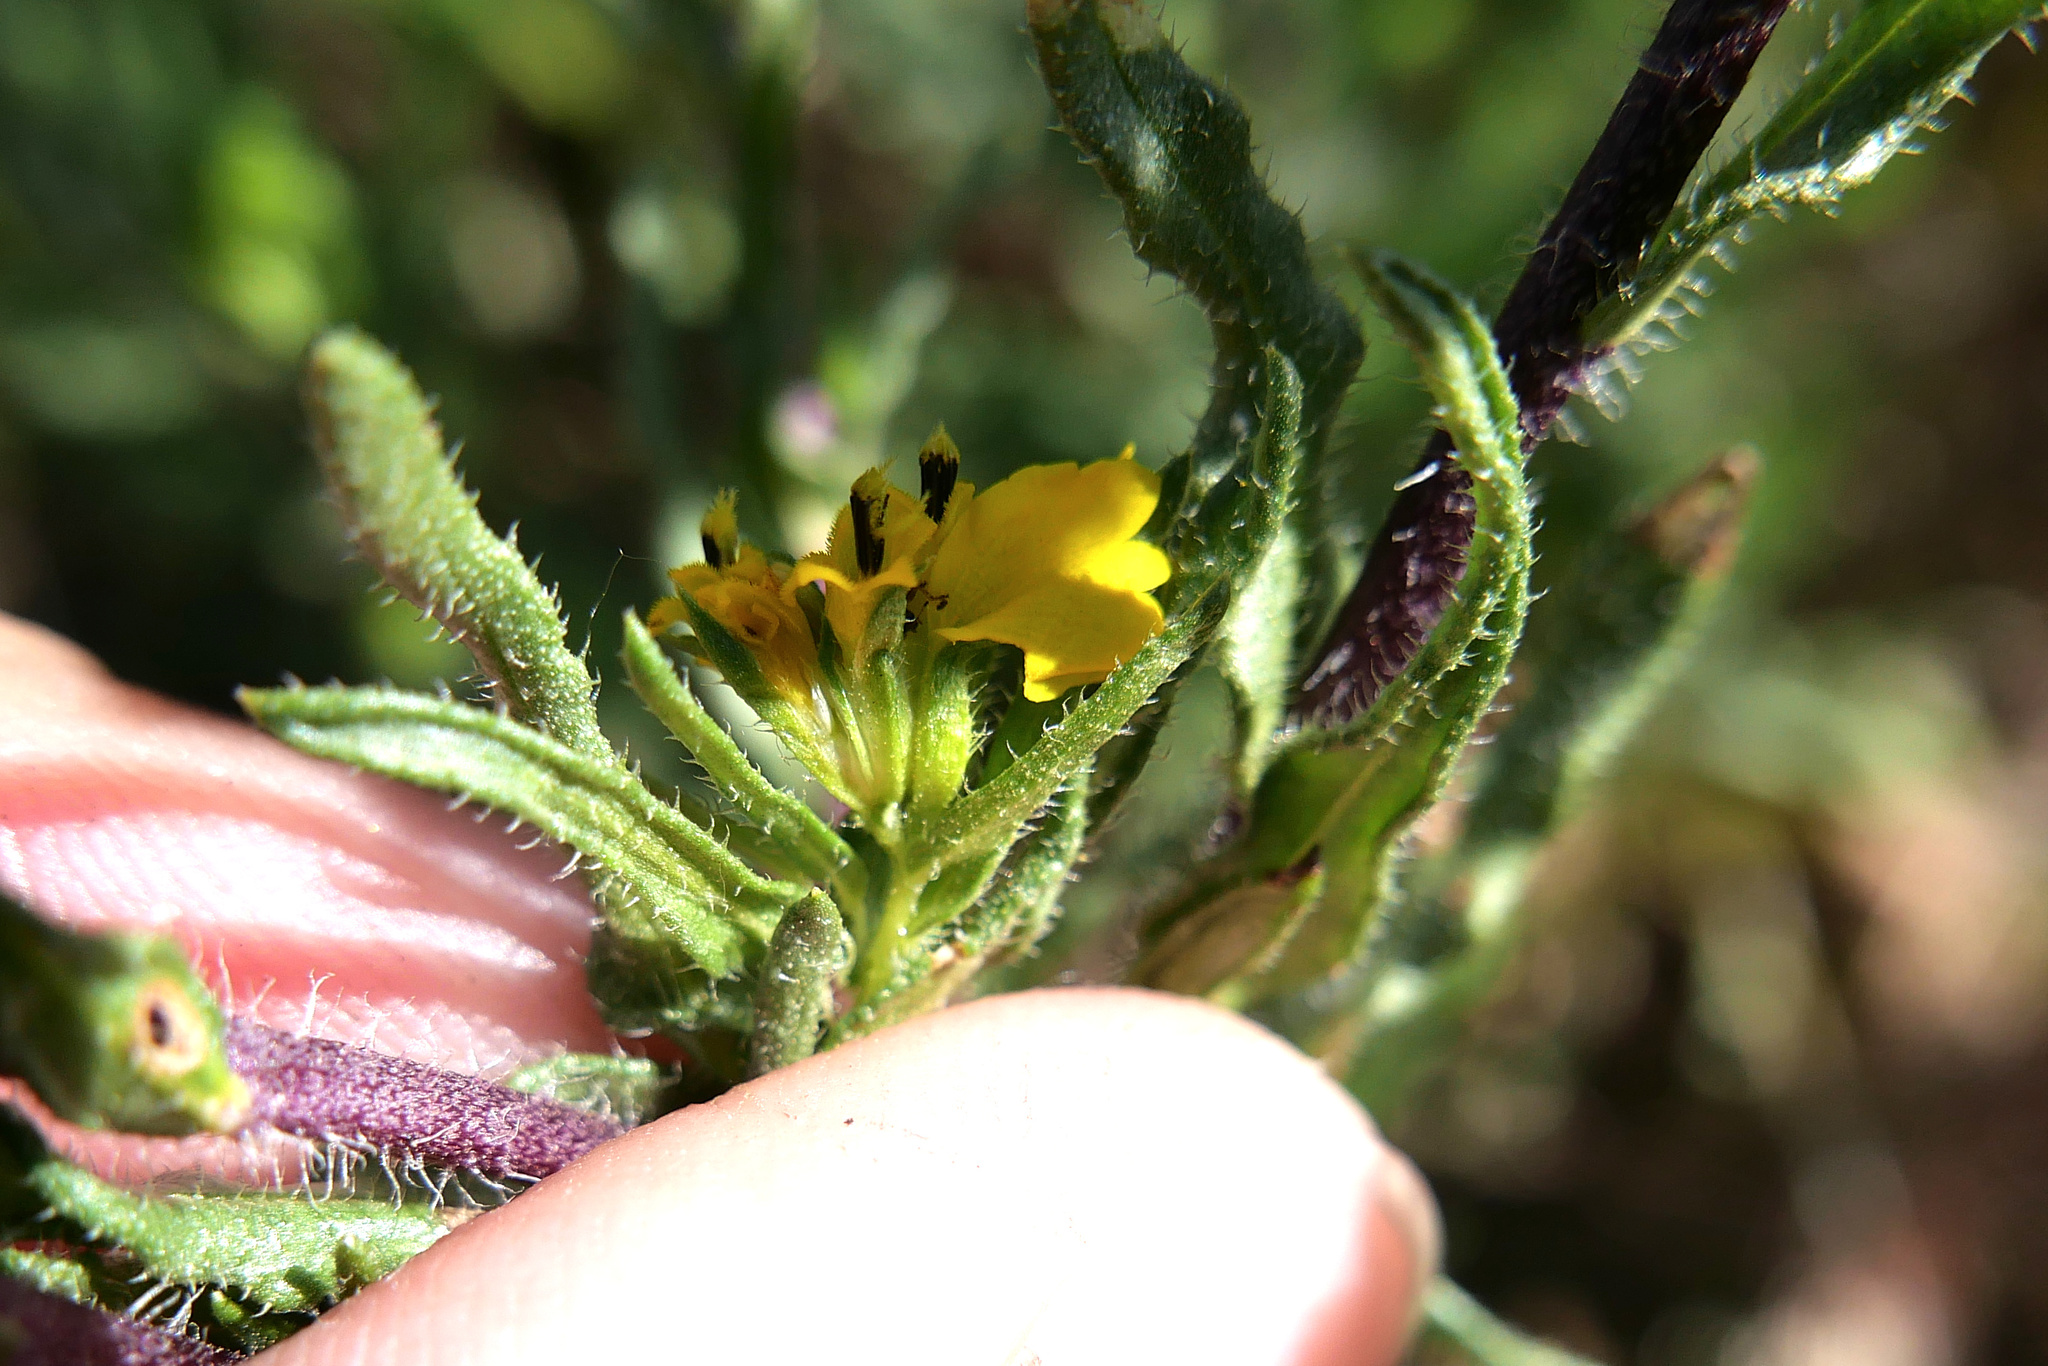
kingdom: Plantae
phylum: Tracheophyta
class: Magnoliopsida
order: Asterales
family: Asteraceae
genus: Deinandra
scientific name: Deinandra fasciculata
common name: Clustered tarweed
